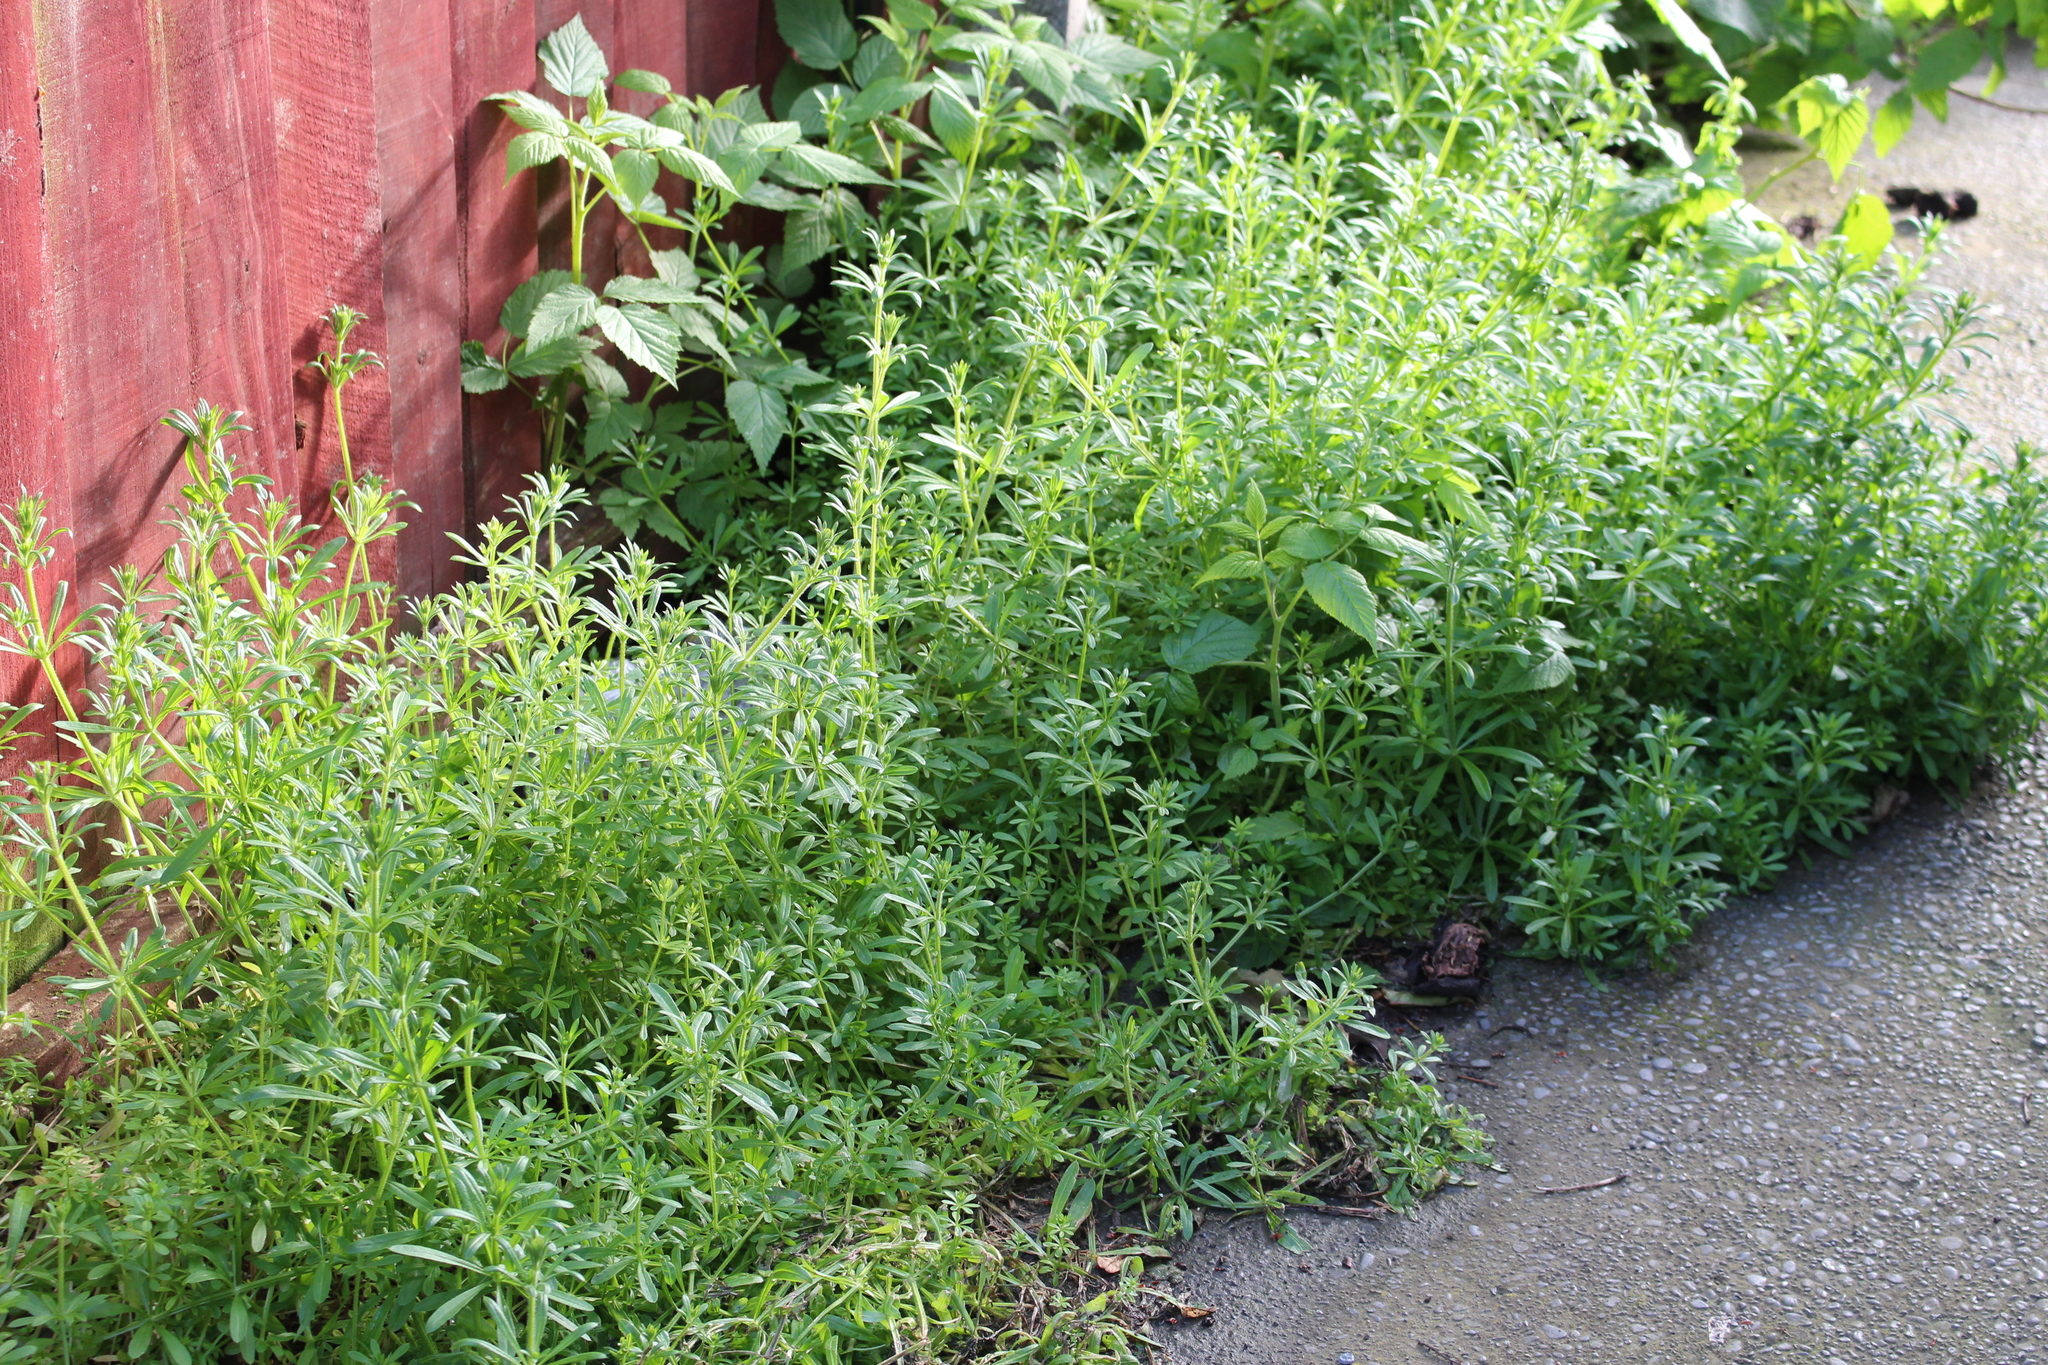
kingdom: Plantae
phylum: Tracheophyta
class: Magnoliopsida
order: Gentianales
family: Rubiaceae
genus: Galium
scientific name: Galium aparine
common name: Cleavers
